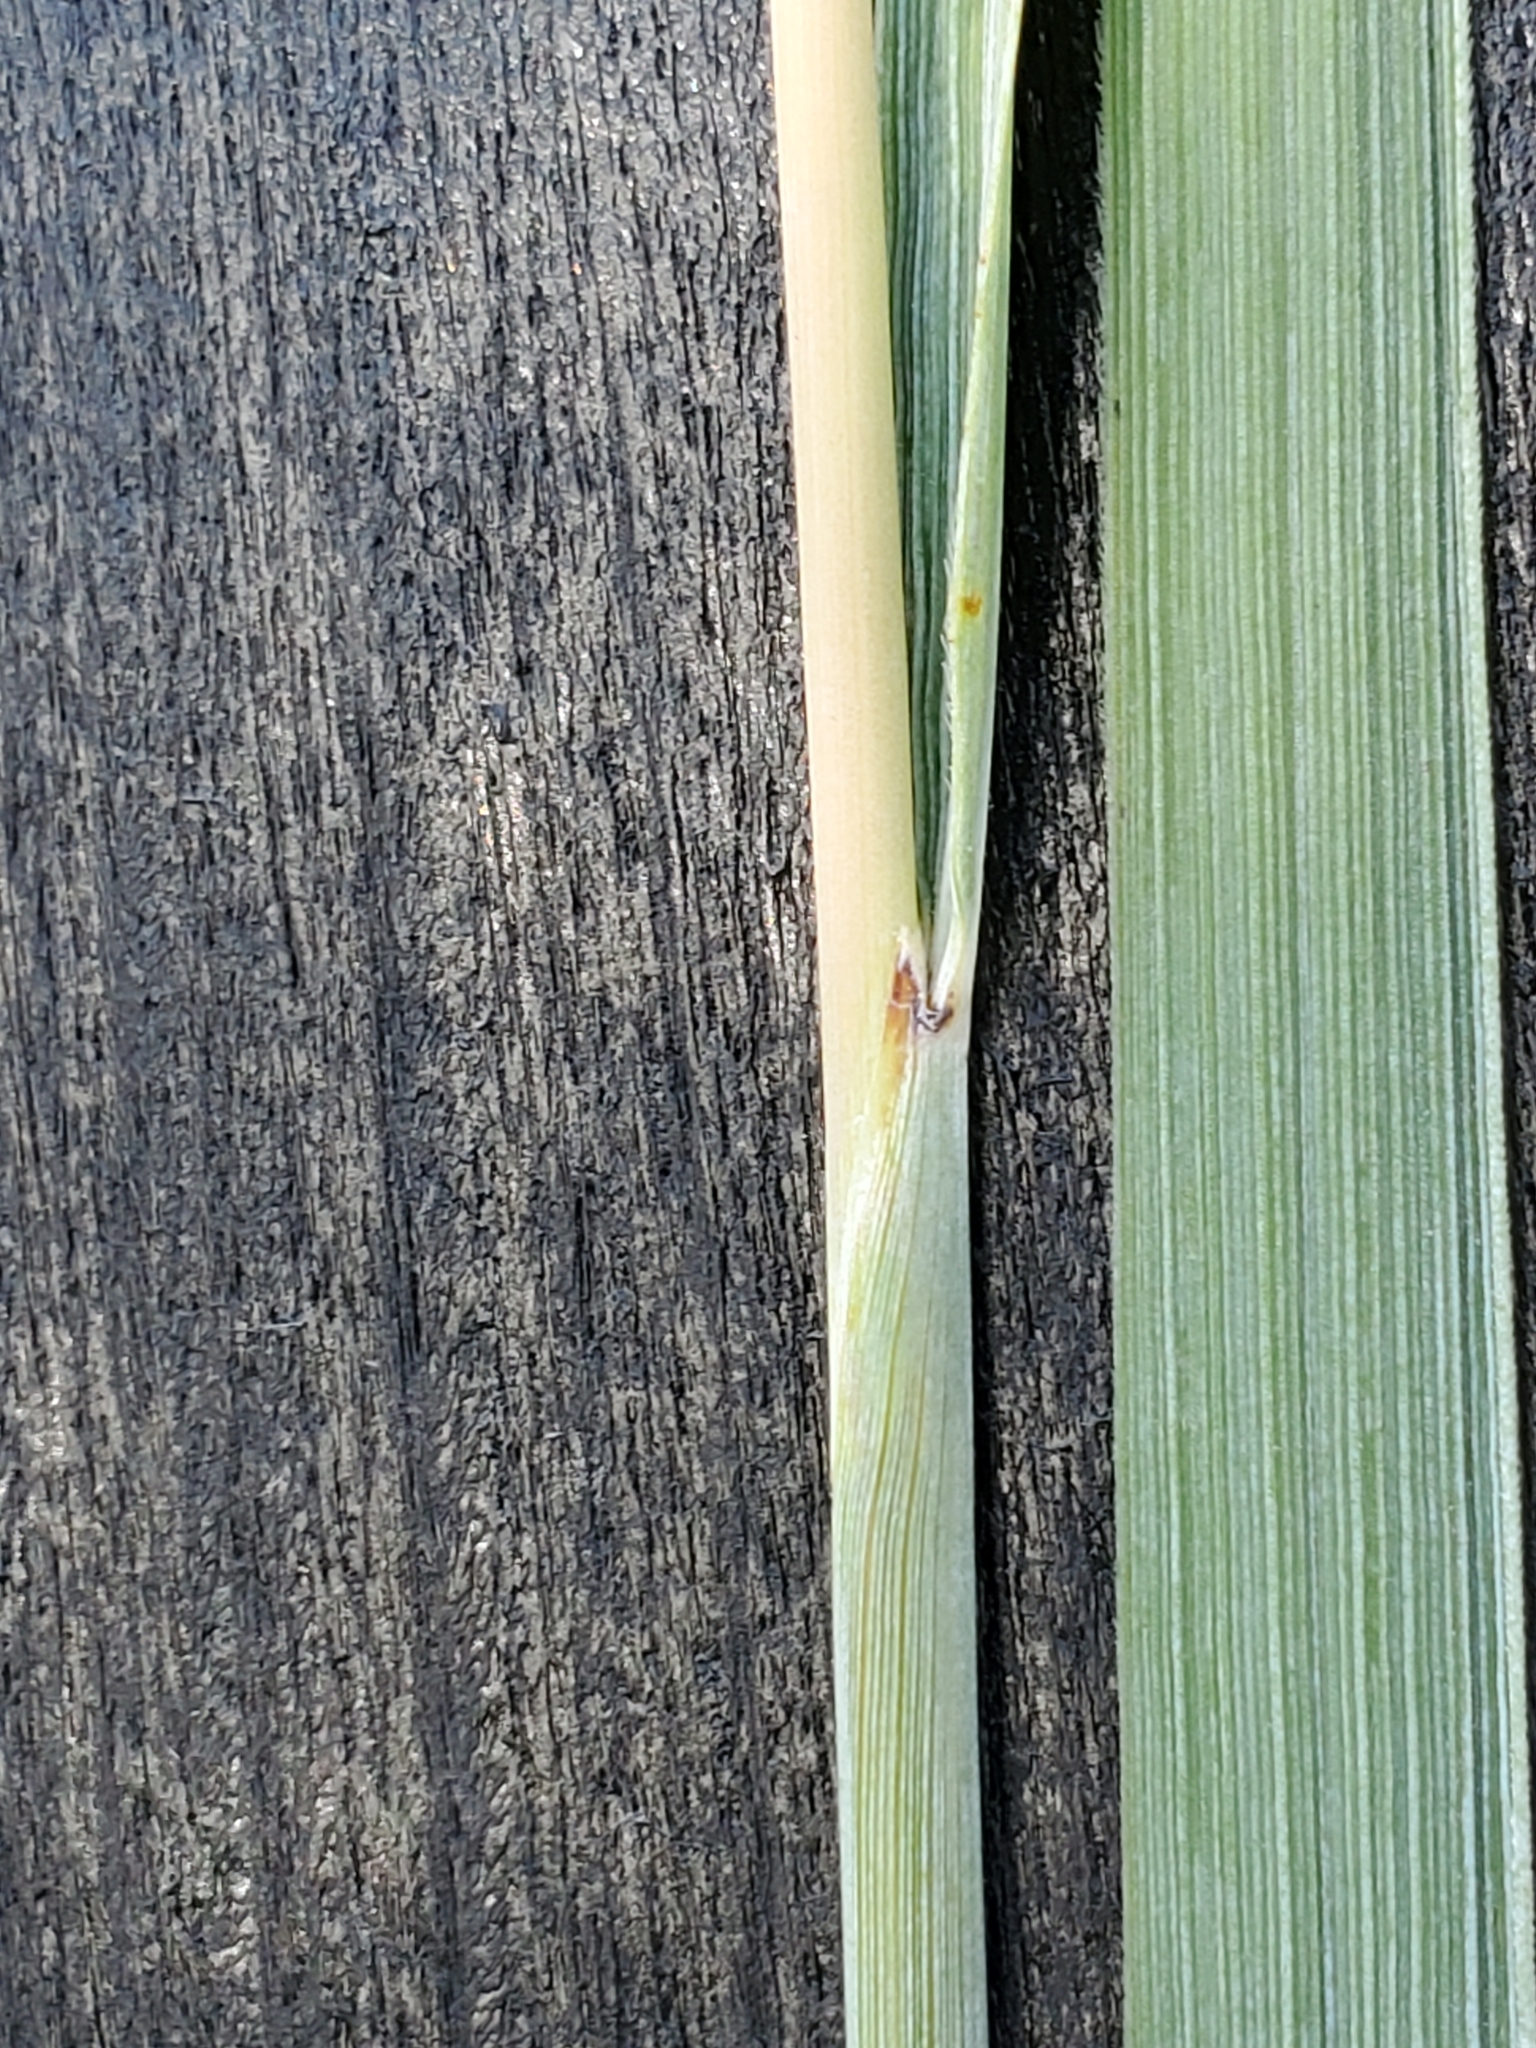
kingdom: Plantae
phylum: Tracheophyta
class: Liliopsida
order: Poales
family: Poaceae
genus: Sorghastrum
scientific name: Sorghastrum nutans
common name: Indian grass
